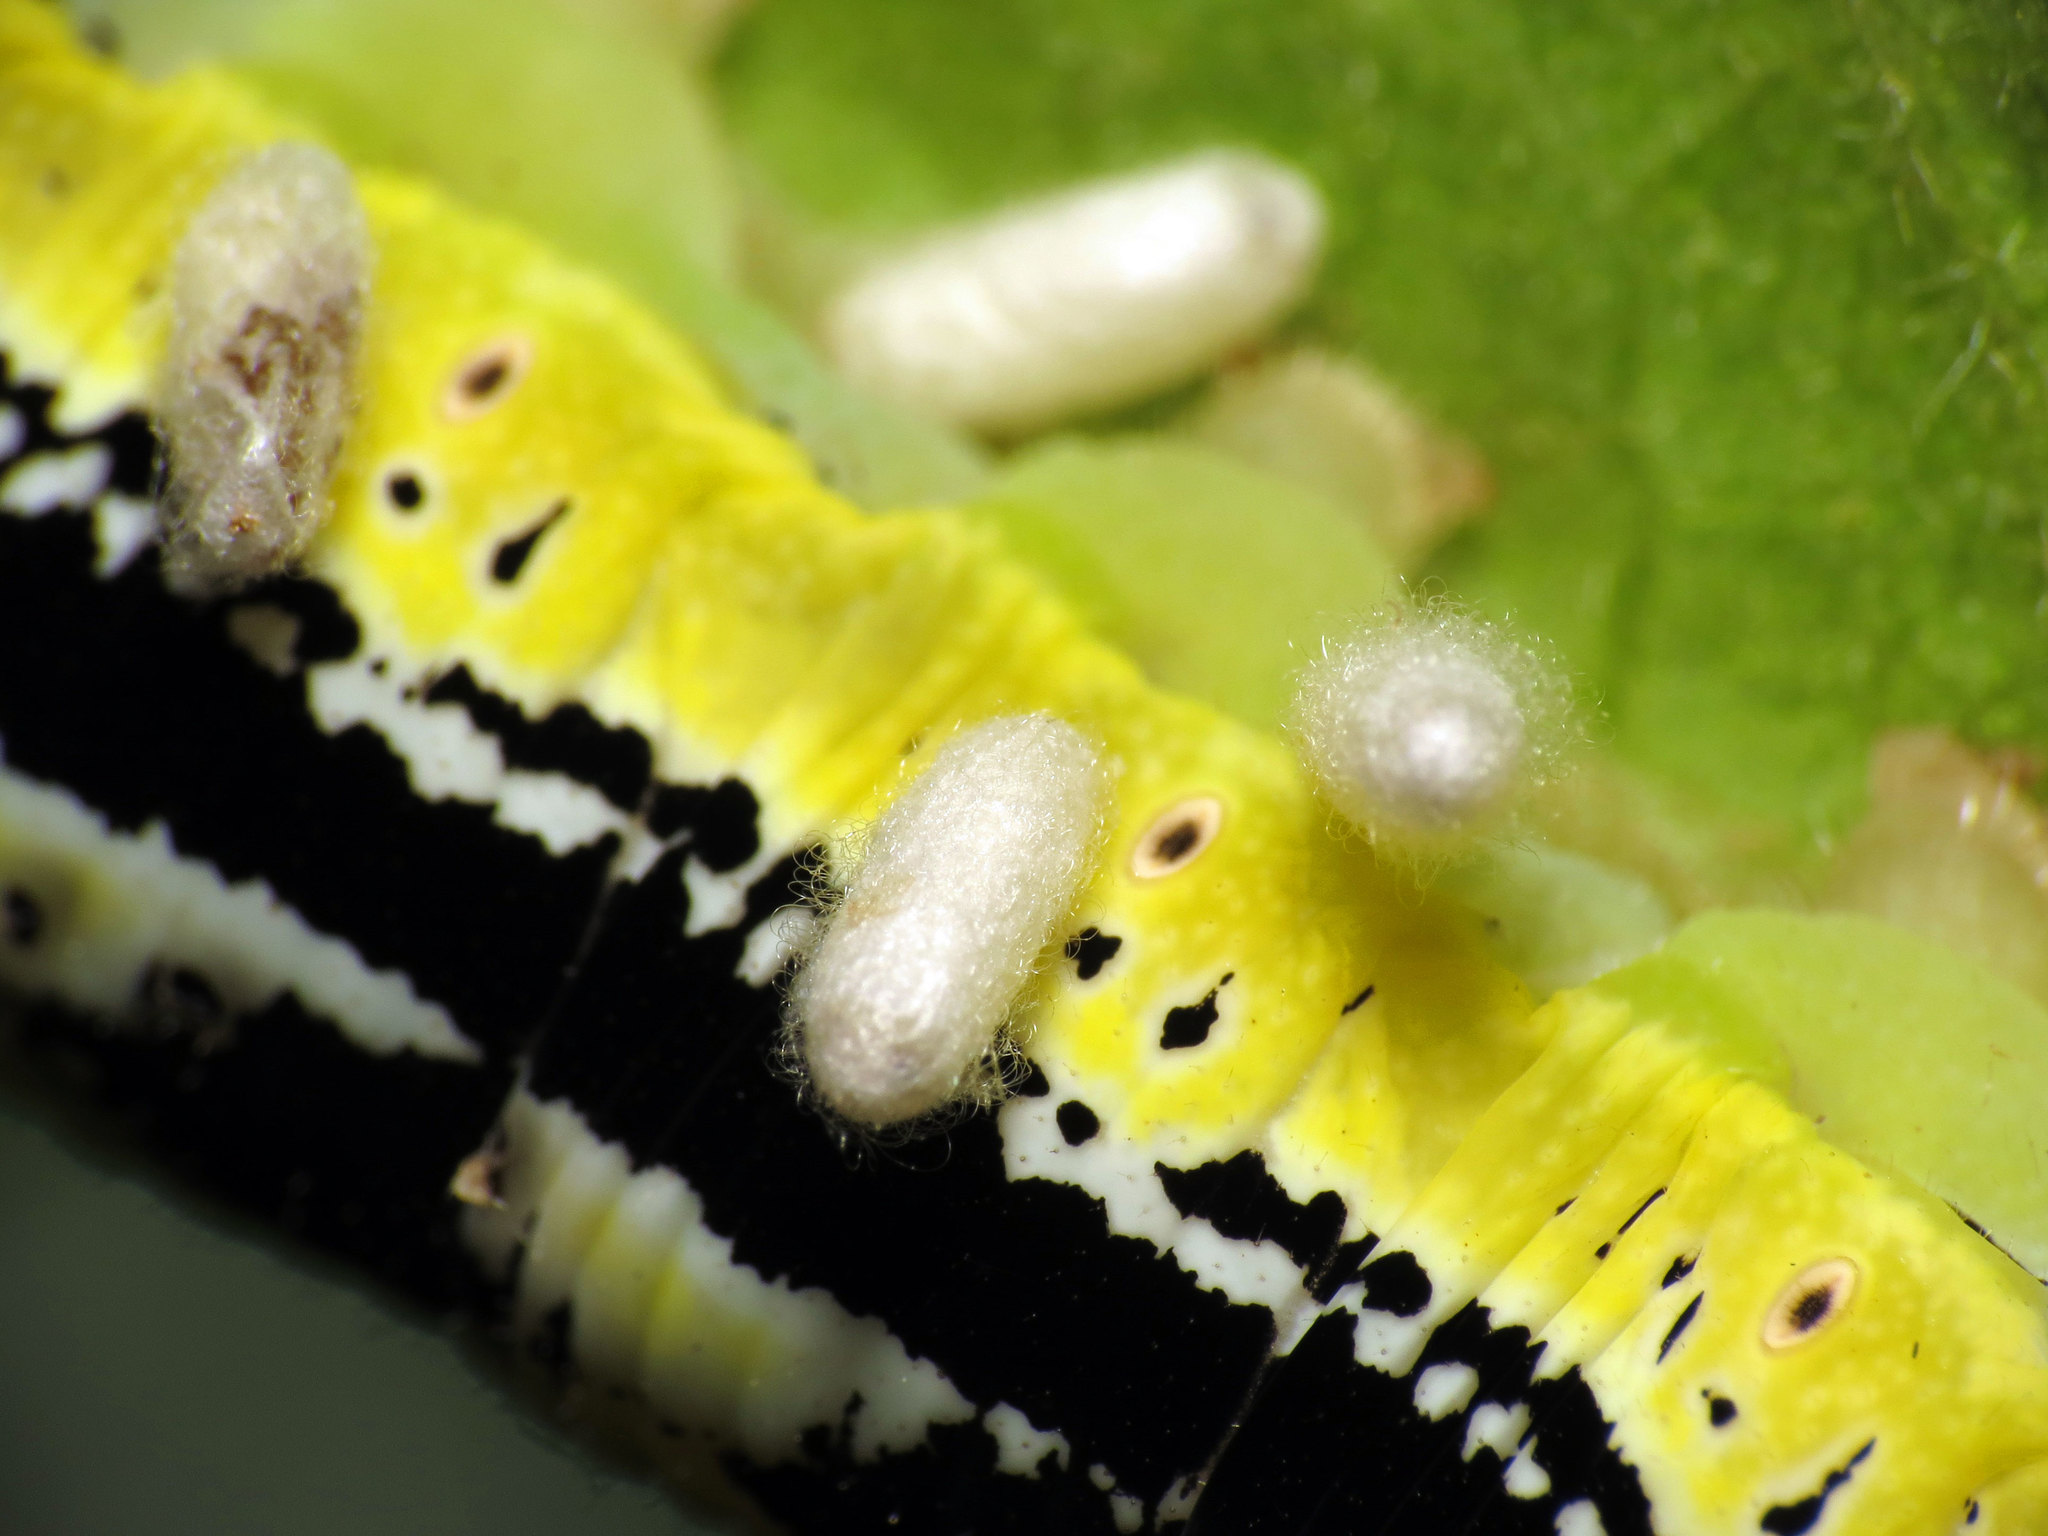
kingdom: Animalia
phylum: Arthropoda
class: Insecta
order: Hymenoptera
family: Braconidae
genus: Cotesia
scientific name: Cotesia congregata
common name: Hornworm parasitoid wasp
